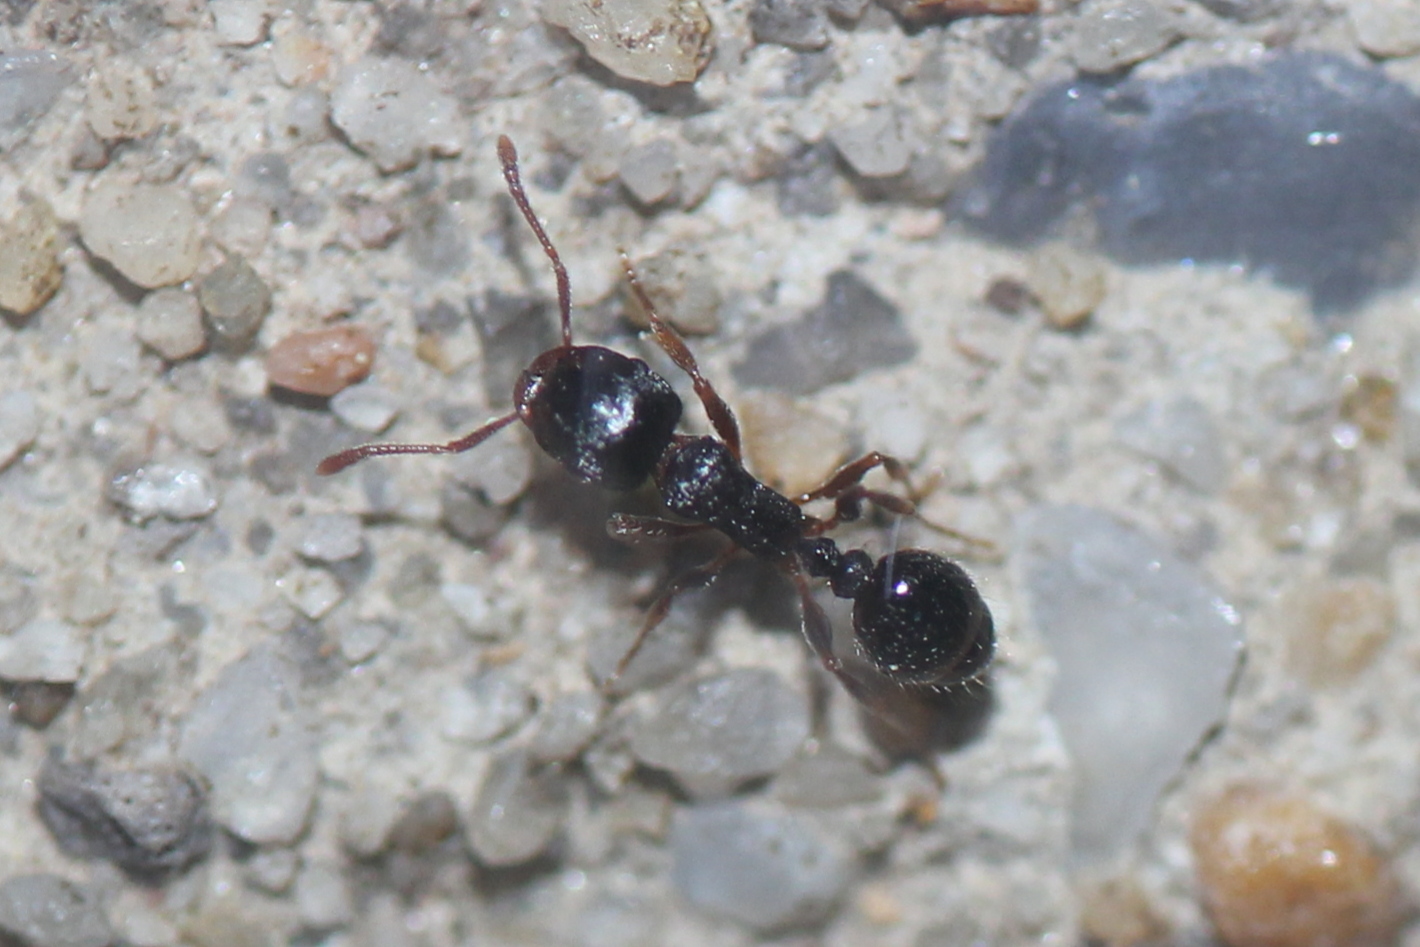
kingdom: Animalia
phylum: Arthropoda
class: Insecta
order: Hymenoptera
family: Formicidae
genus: Tetramorium
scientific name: Tetramorium immigrans
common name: Pavement ant
